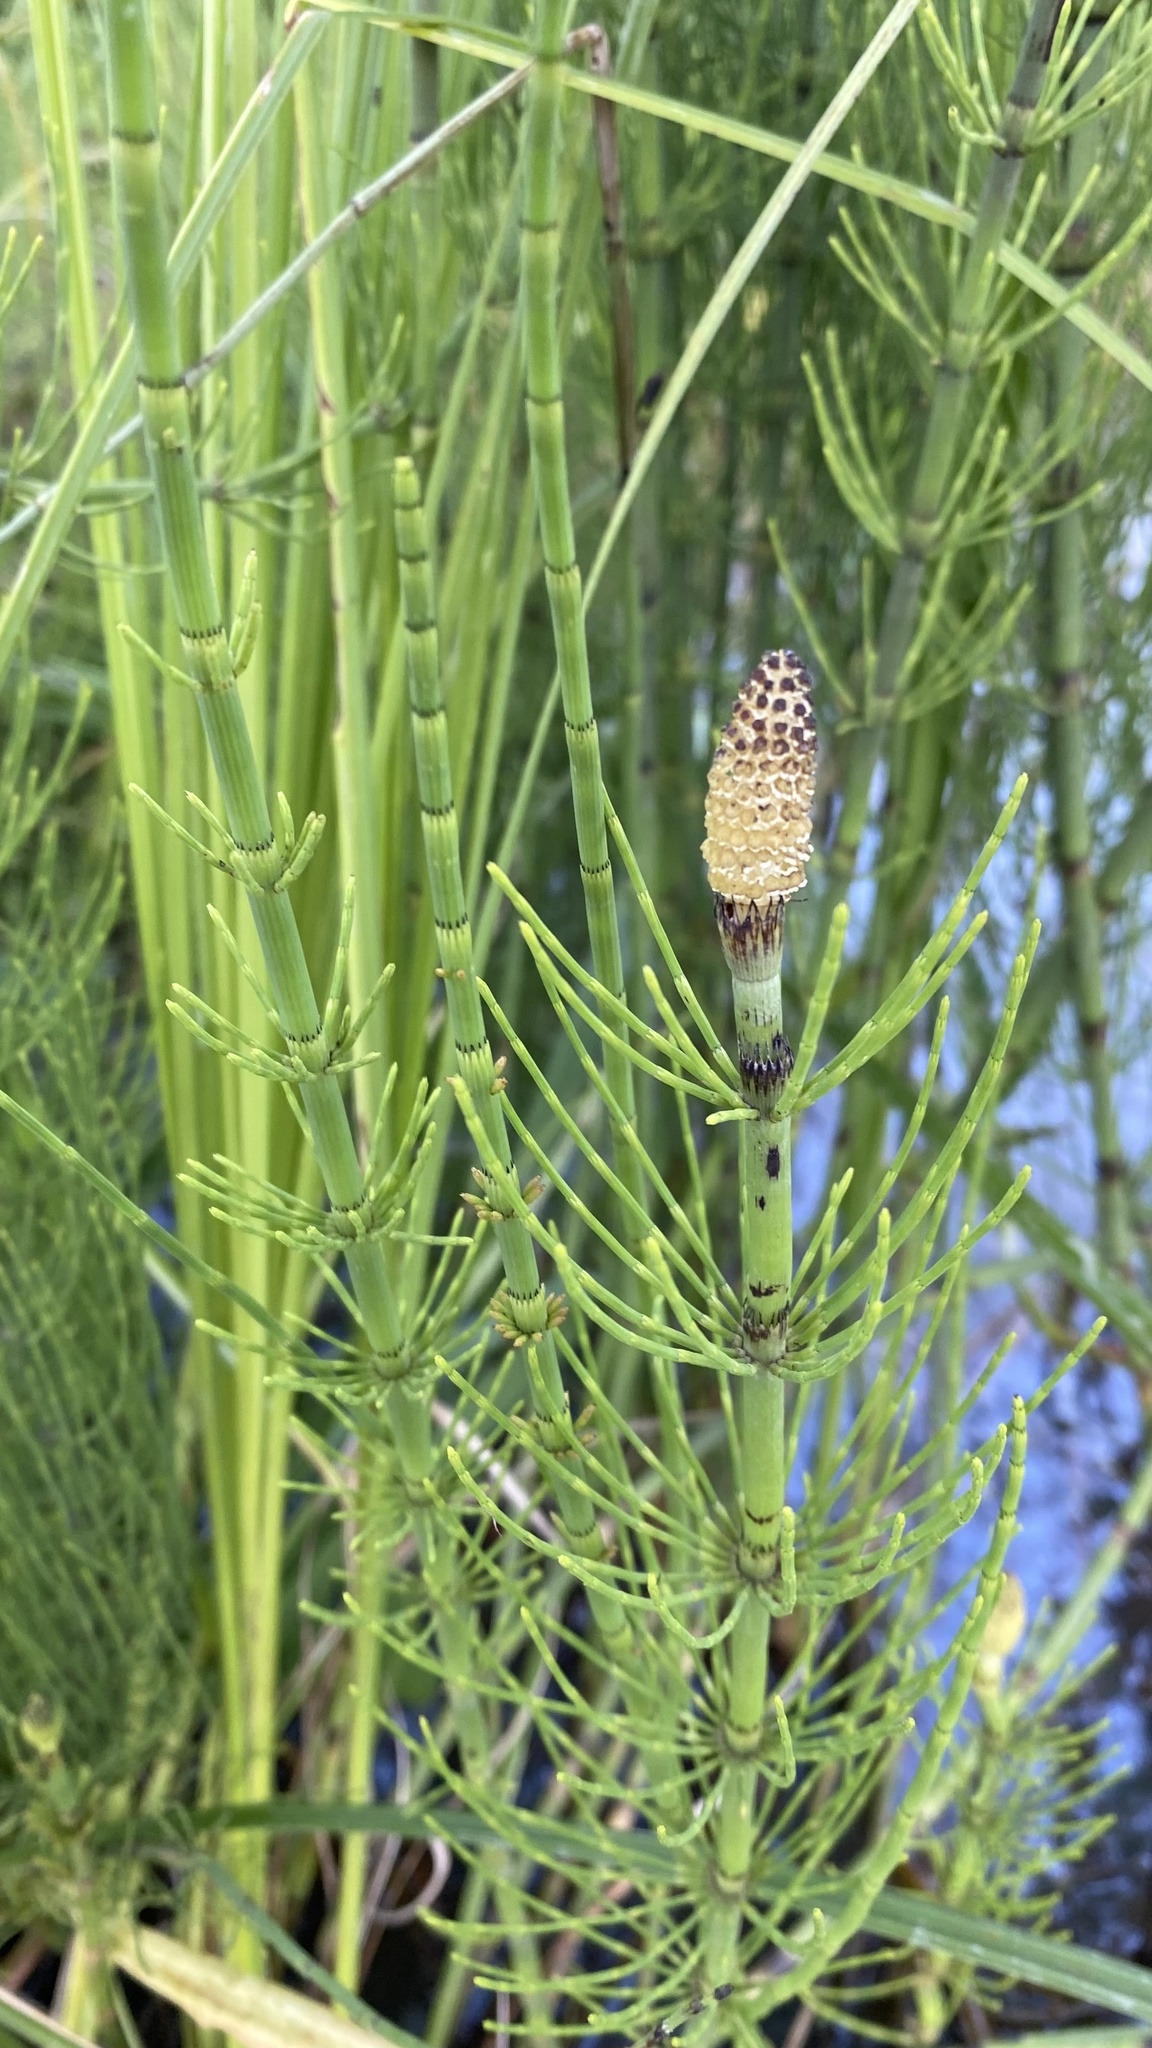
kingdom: Plantae
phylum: Tracheophyta
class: Polypodiopsida
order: Equisetales
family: Equisetaceae
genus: Equisetum
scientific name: Equisetum fluviatile
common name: Water horsetail
